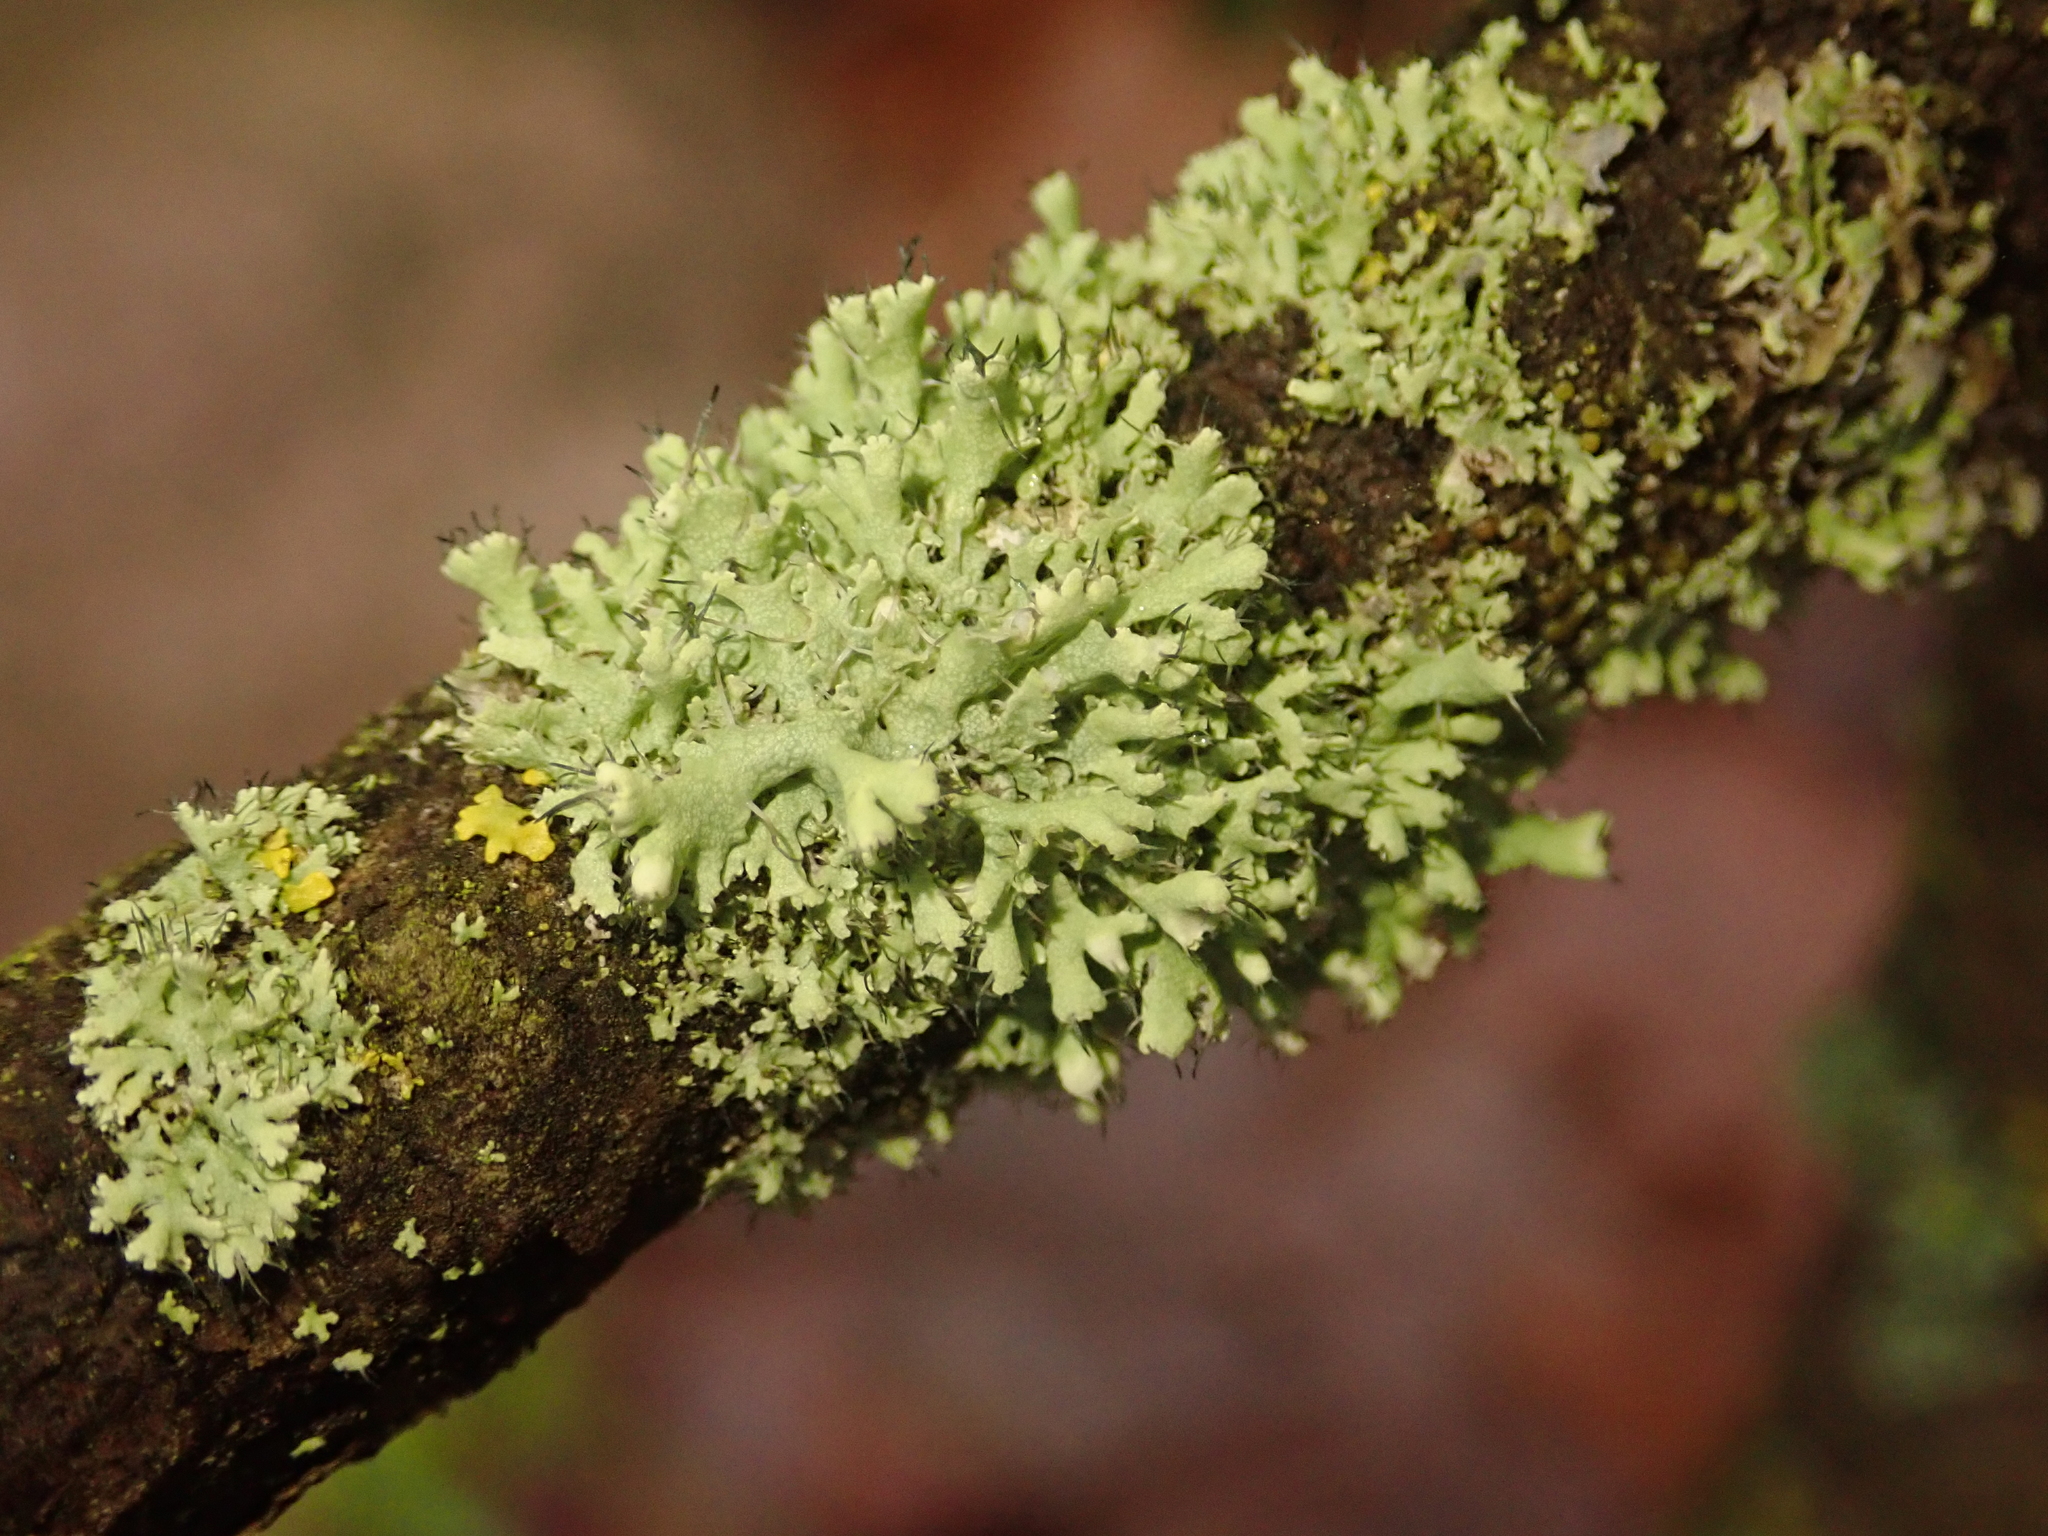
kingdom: Fungi
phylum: Ascomycota
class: Lecanoromycetes
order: Caliciales
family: Physciaceae
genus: Physcia
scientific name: Physcia adscendens
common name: Hooded rosette lichen
